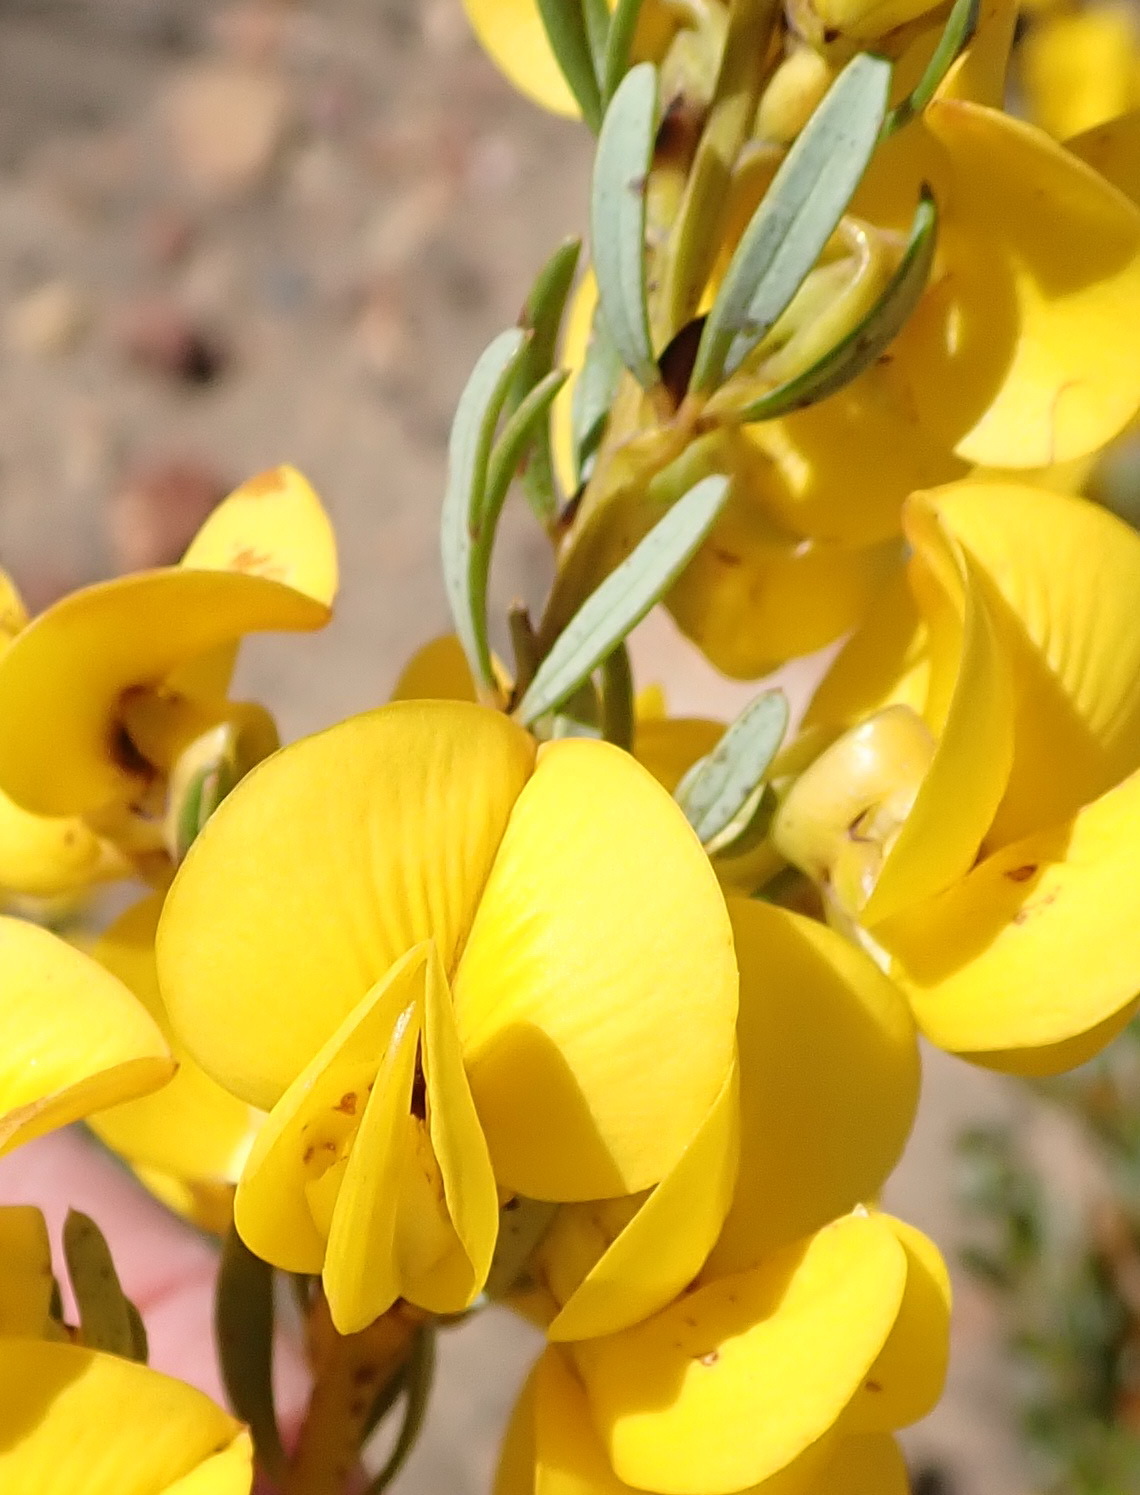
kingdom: Plantae
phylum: Tracheophyta
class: Magnoliopsida
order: Fabales
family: Fabaceae
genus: Cyclopia
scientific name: Cyclopia intermedia
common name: Mountain tea
